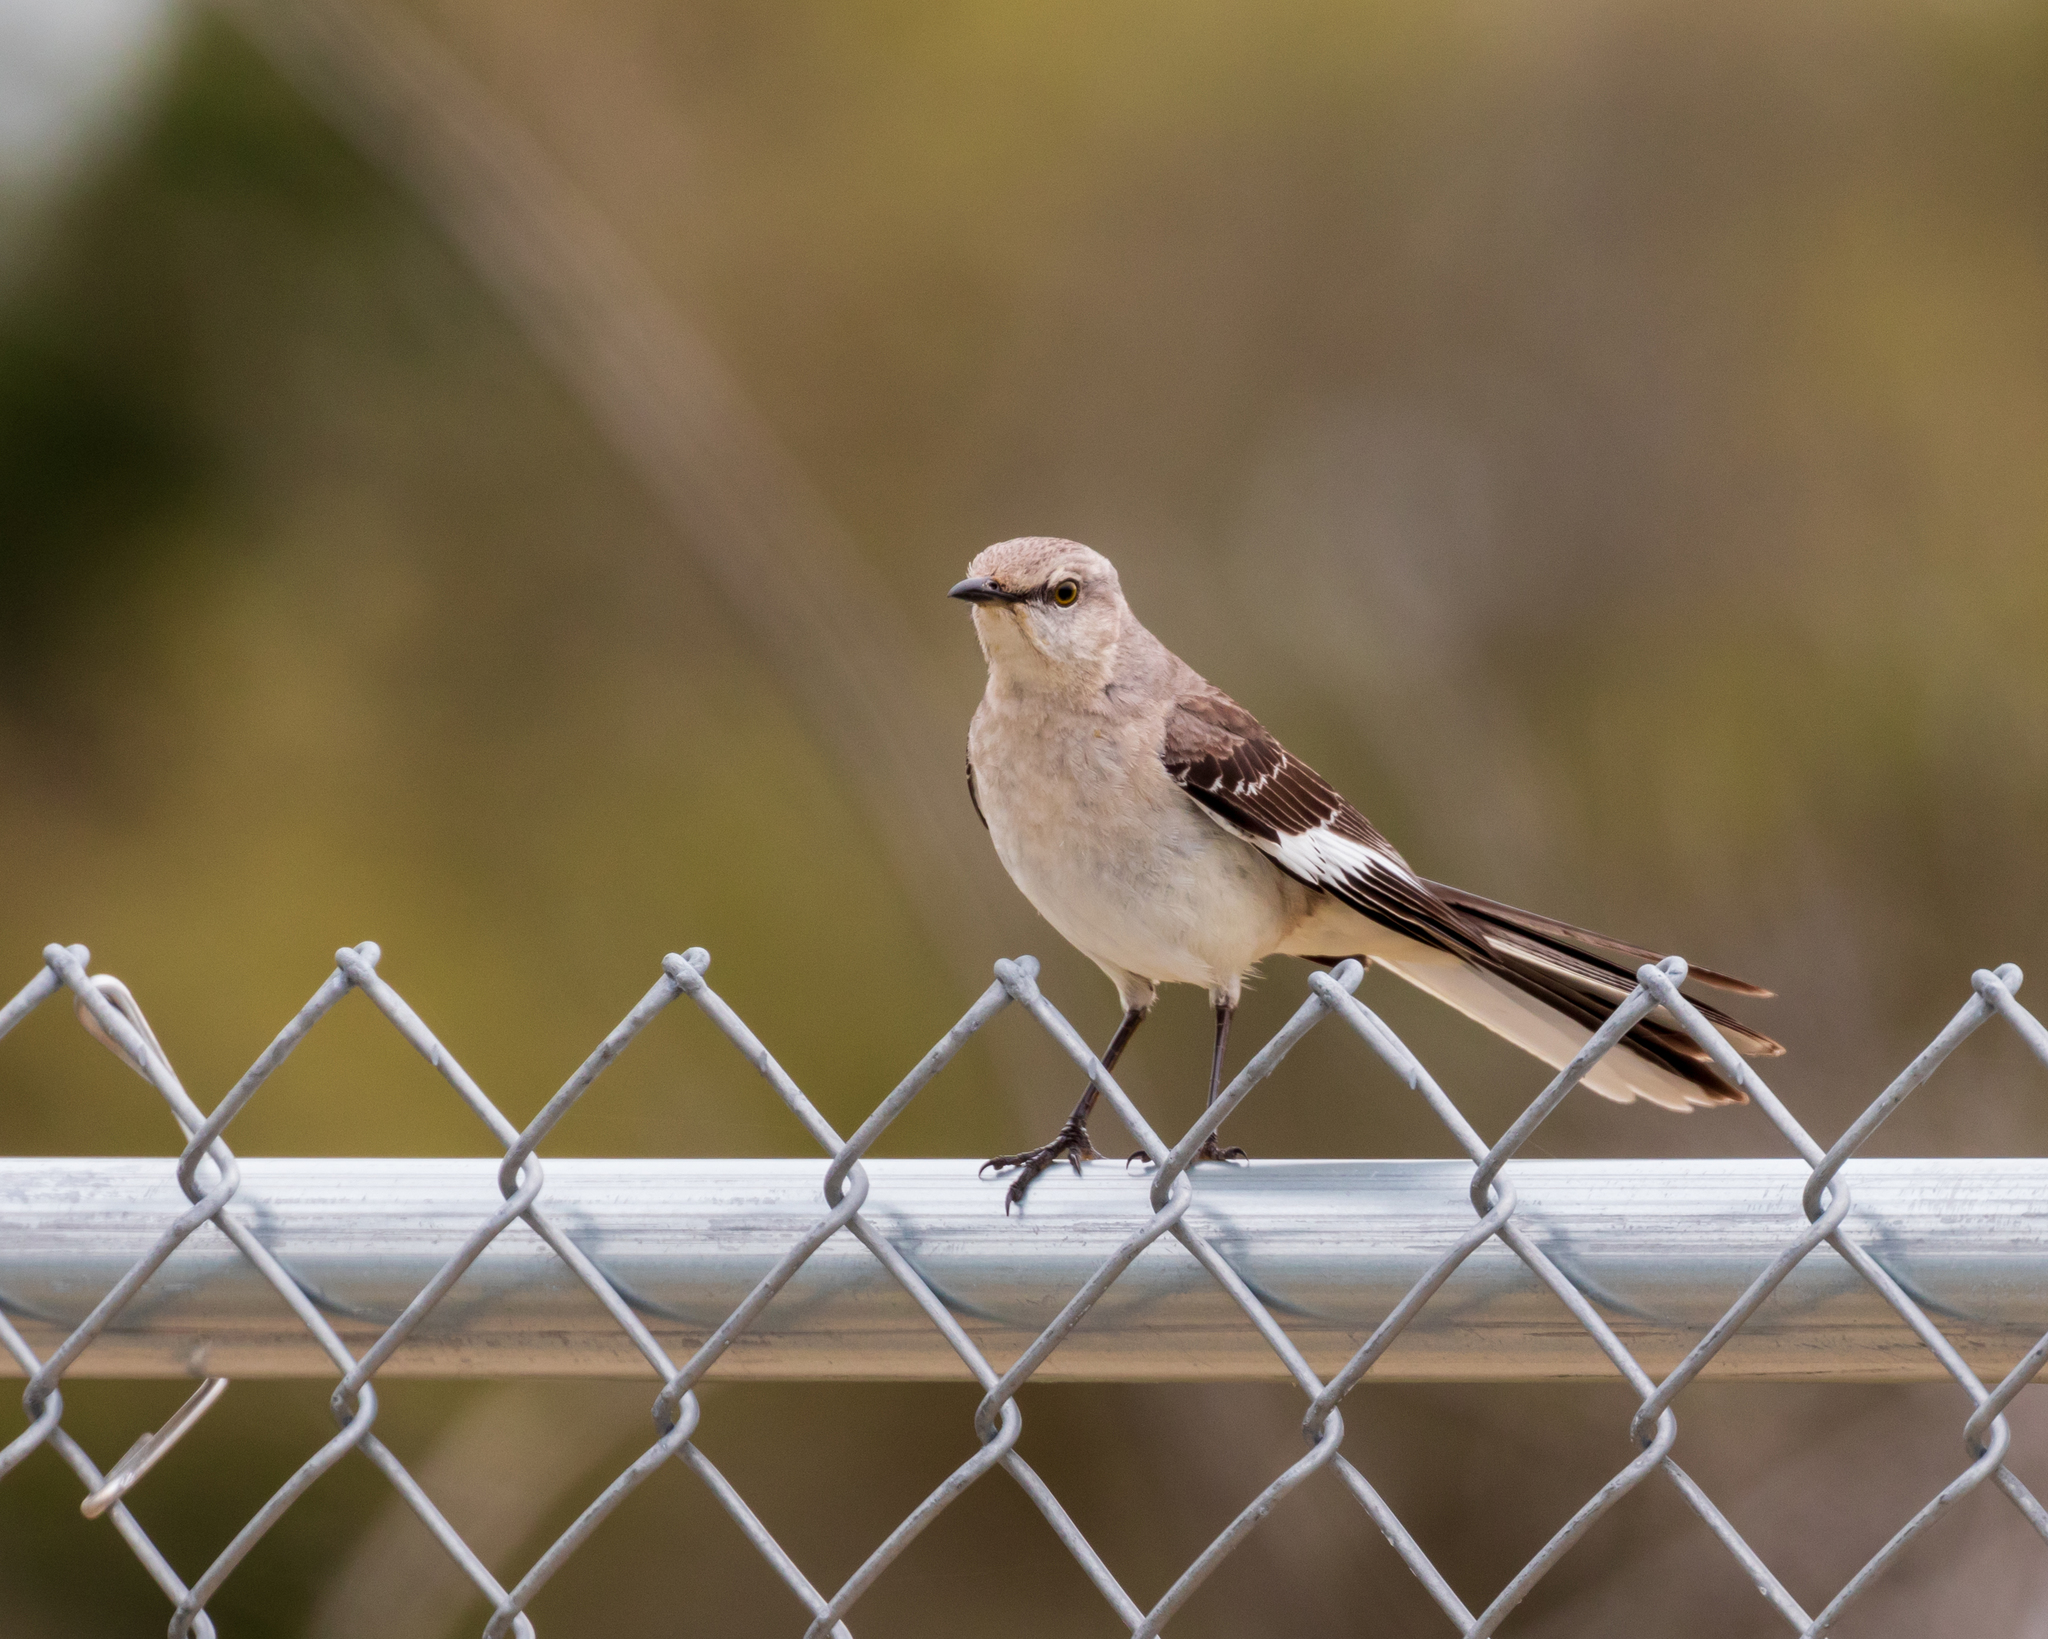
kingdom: Animalia
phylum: Chordata
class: Aves
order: Passeriformes
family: Mimidae
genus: Mimus
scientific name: Mimus polyglottos
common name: Northern mockingbird
